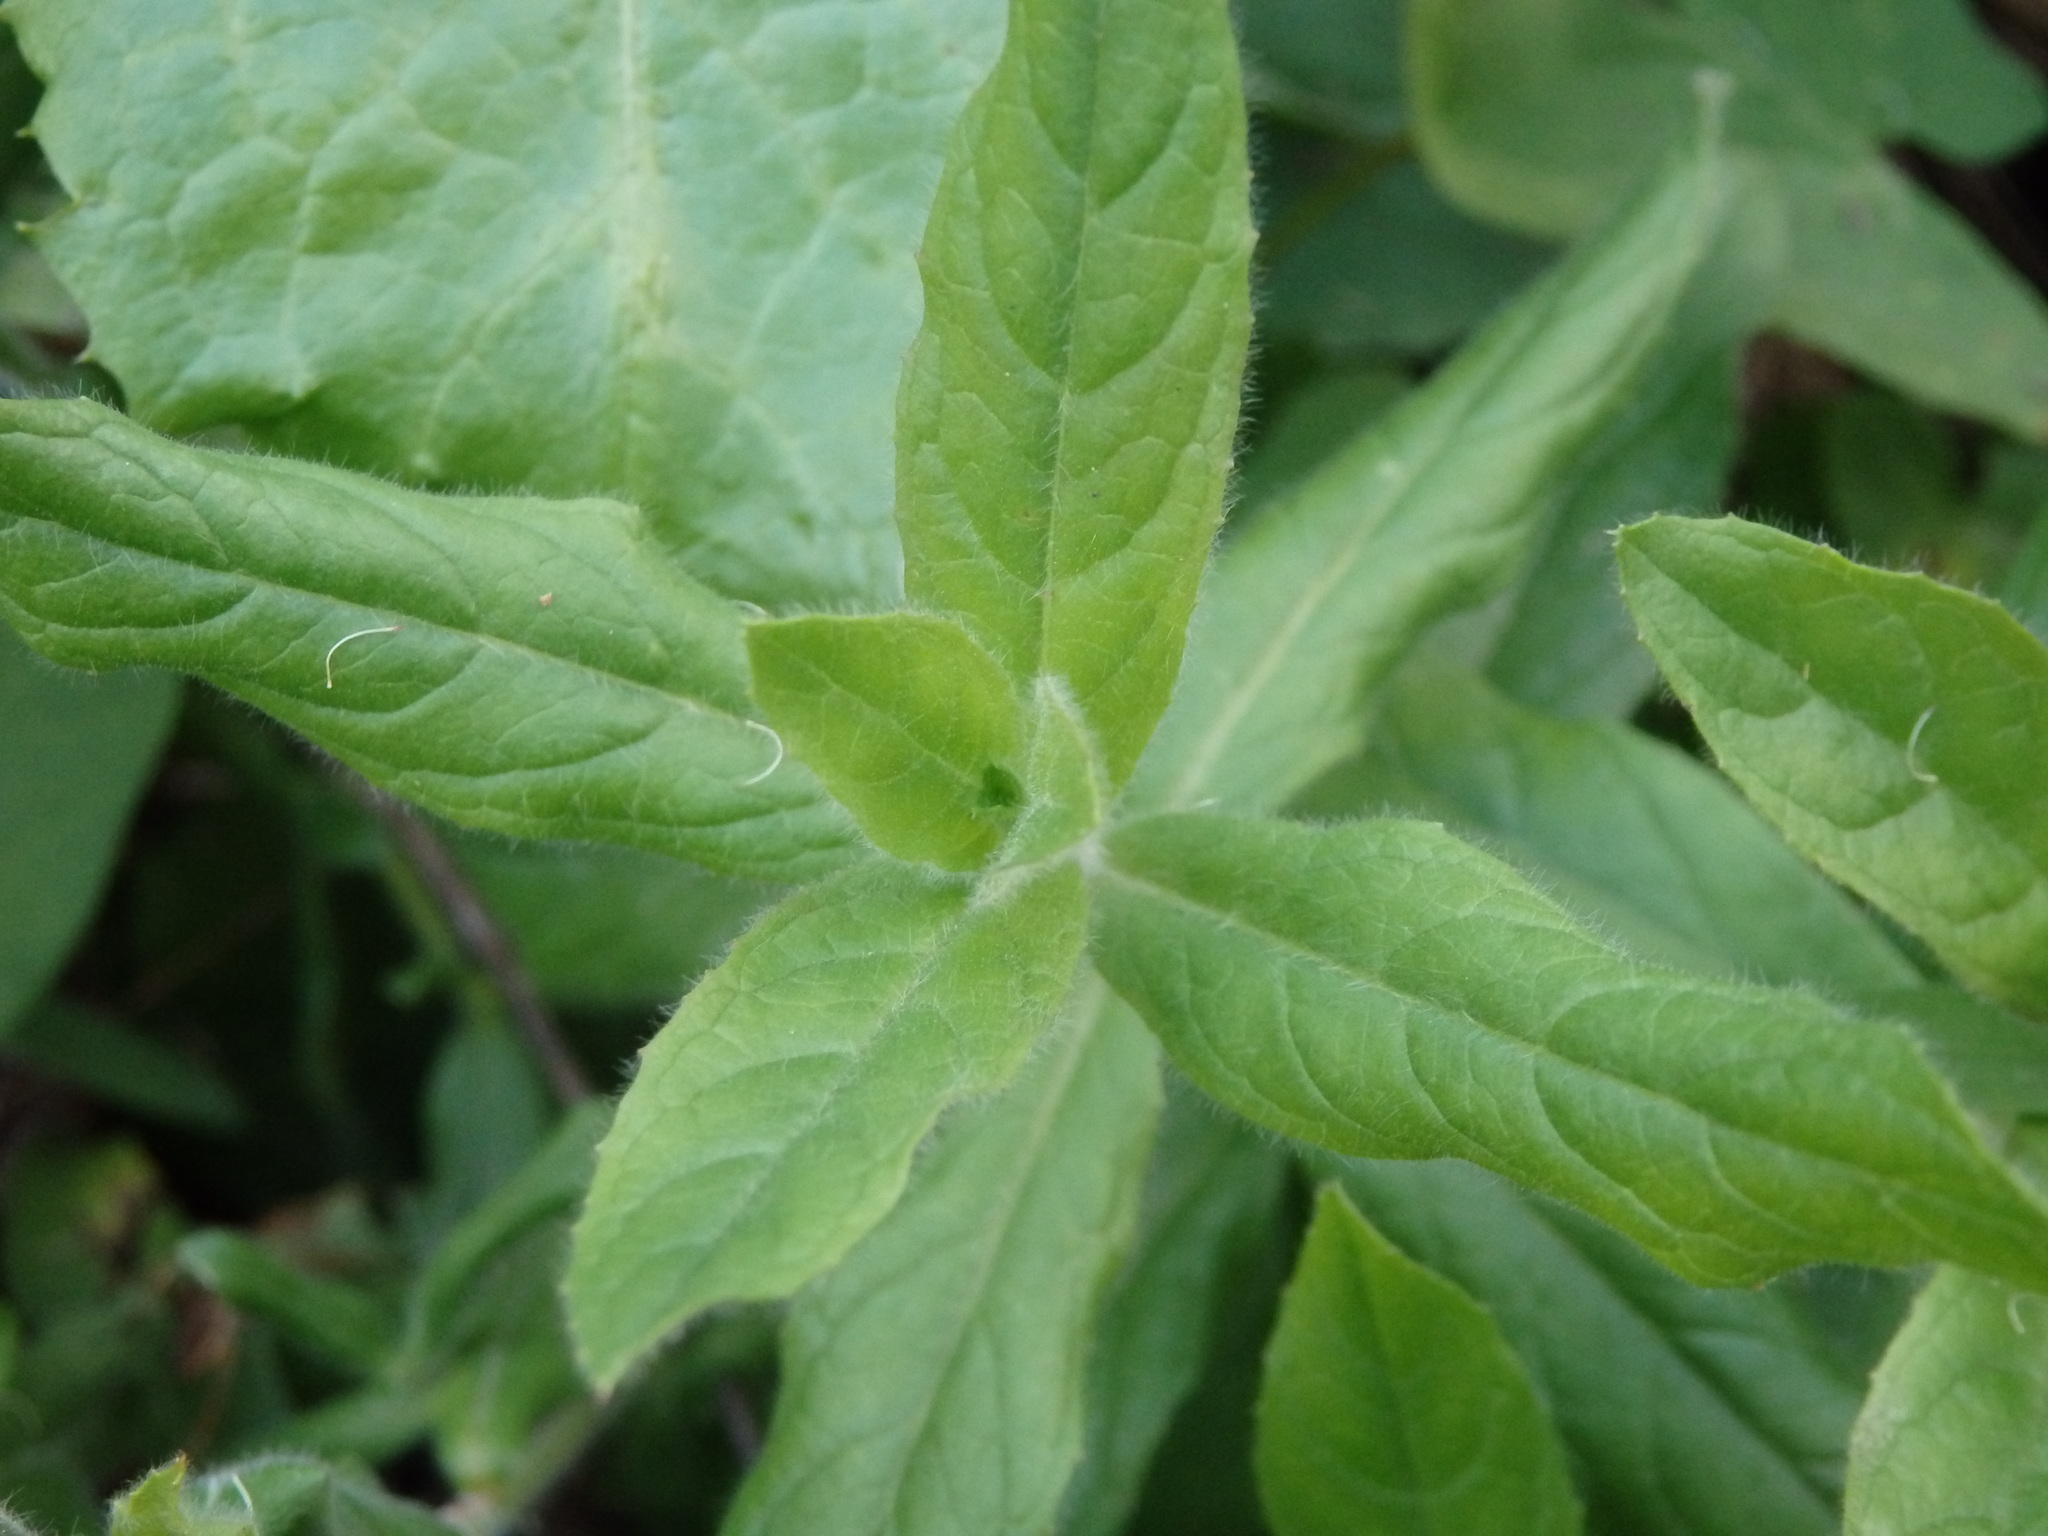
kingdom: Plantae
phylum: Tracheophyta
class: Magnoliopsida
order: Myrtales
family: Onagraceae
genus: Epilobium
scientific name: Epilobium hirsutum
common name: Great willowherb
